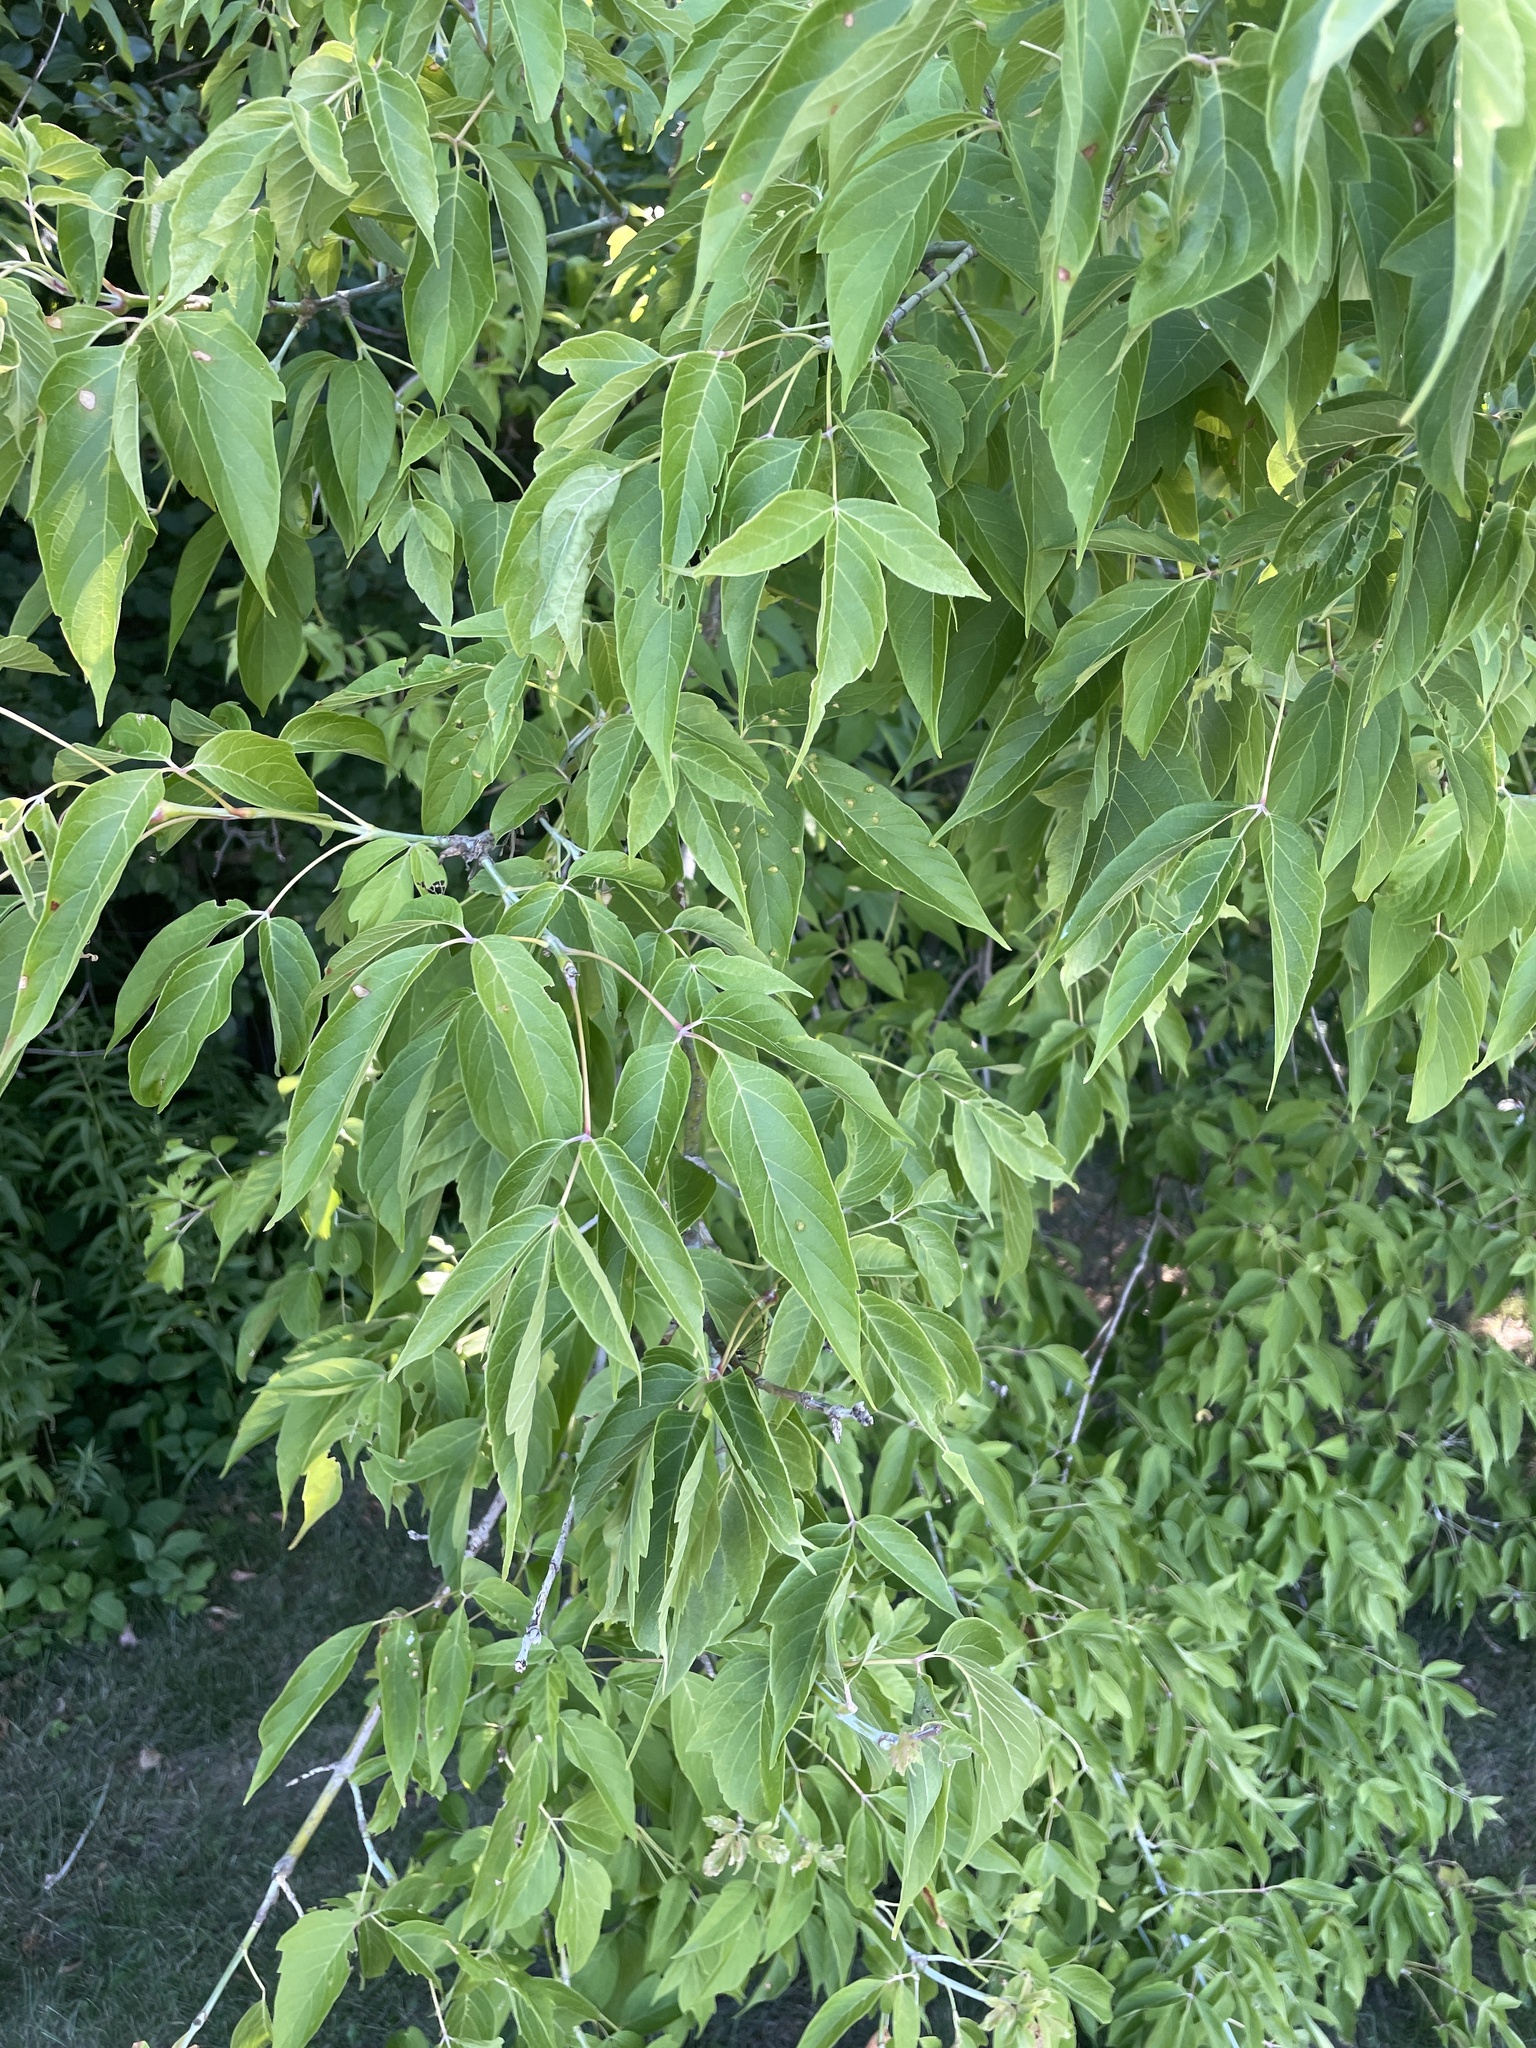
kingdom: Plantae
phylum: Tracheophyta
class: Magnoliopsida
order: Sapindales
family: Sapindaceae
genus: Acer
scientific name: Acer negundo
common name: Ashleaf maple
